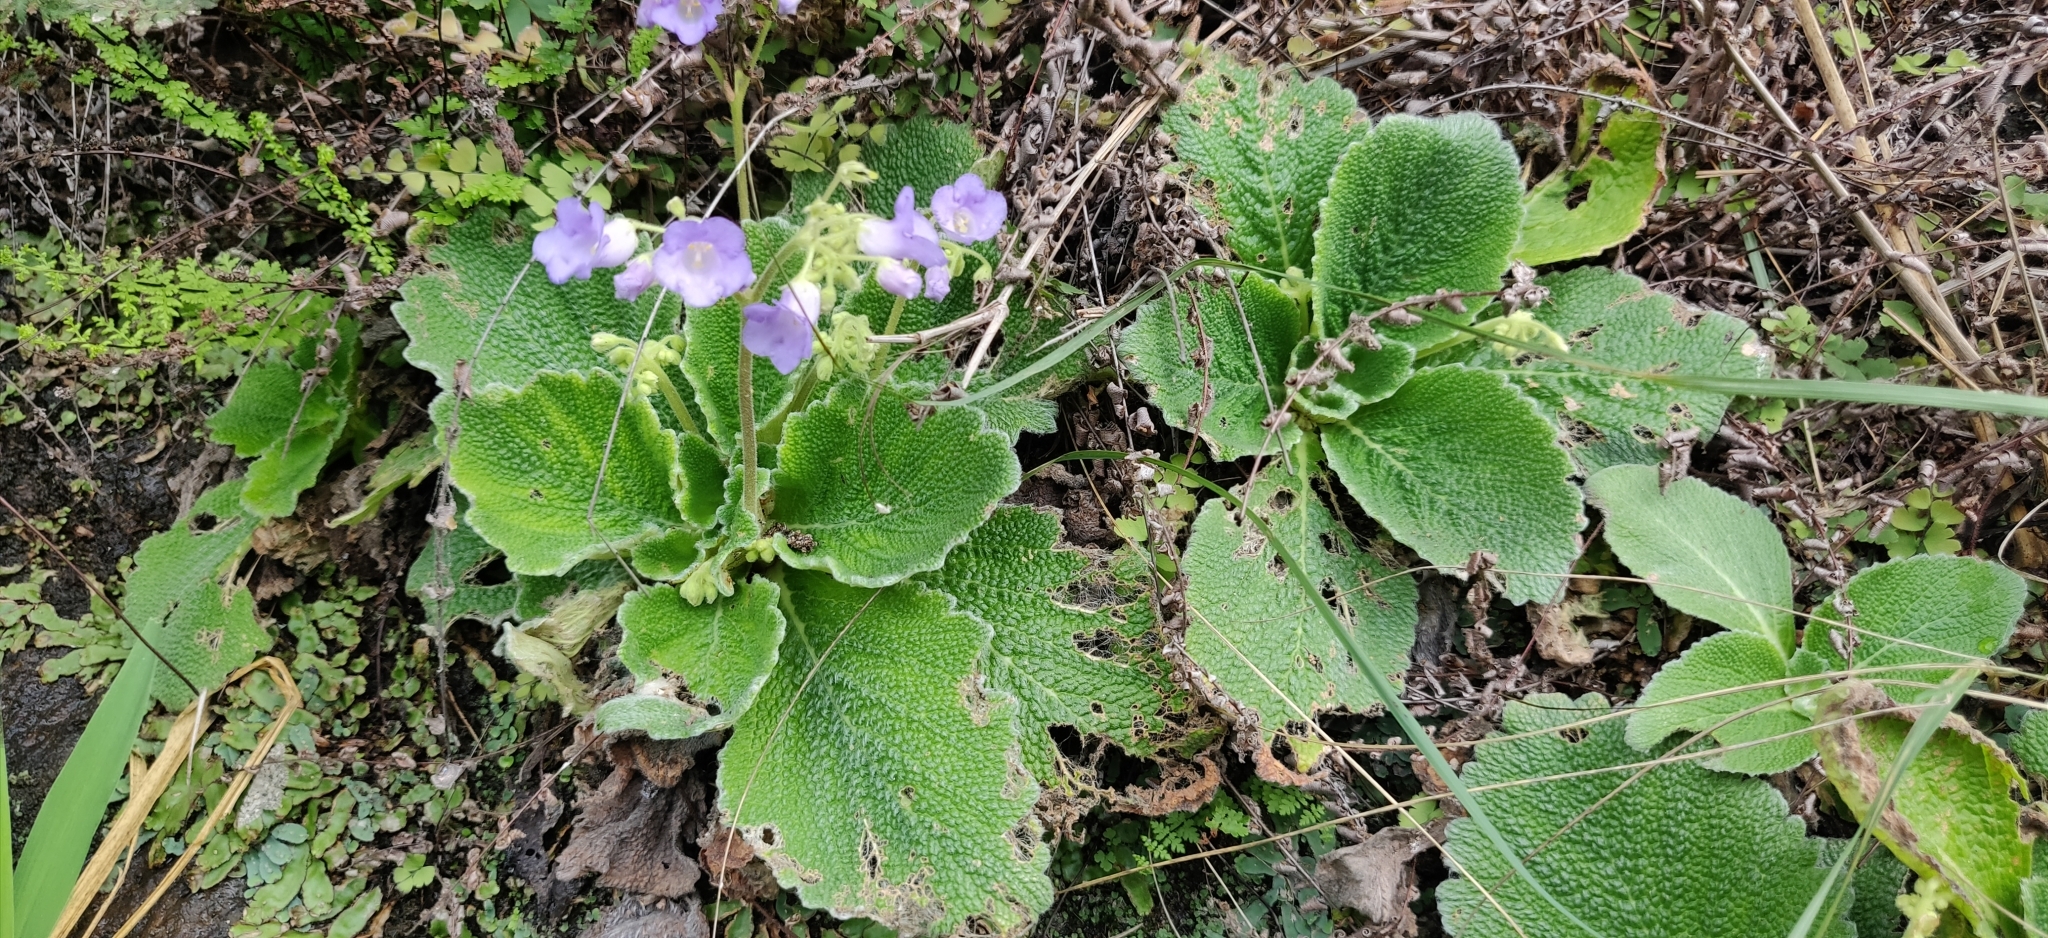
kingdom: Plantae
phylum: Tracheophyta
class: Magnoliopsida
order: Lamiales
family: Gesneriaceae
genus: Henckelia
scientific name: Henckelia incana
